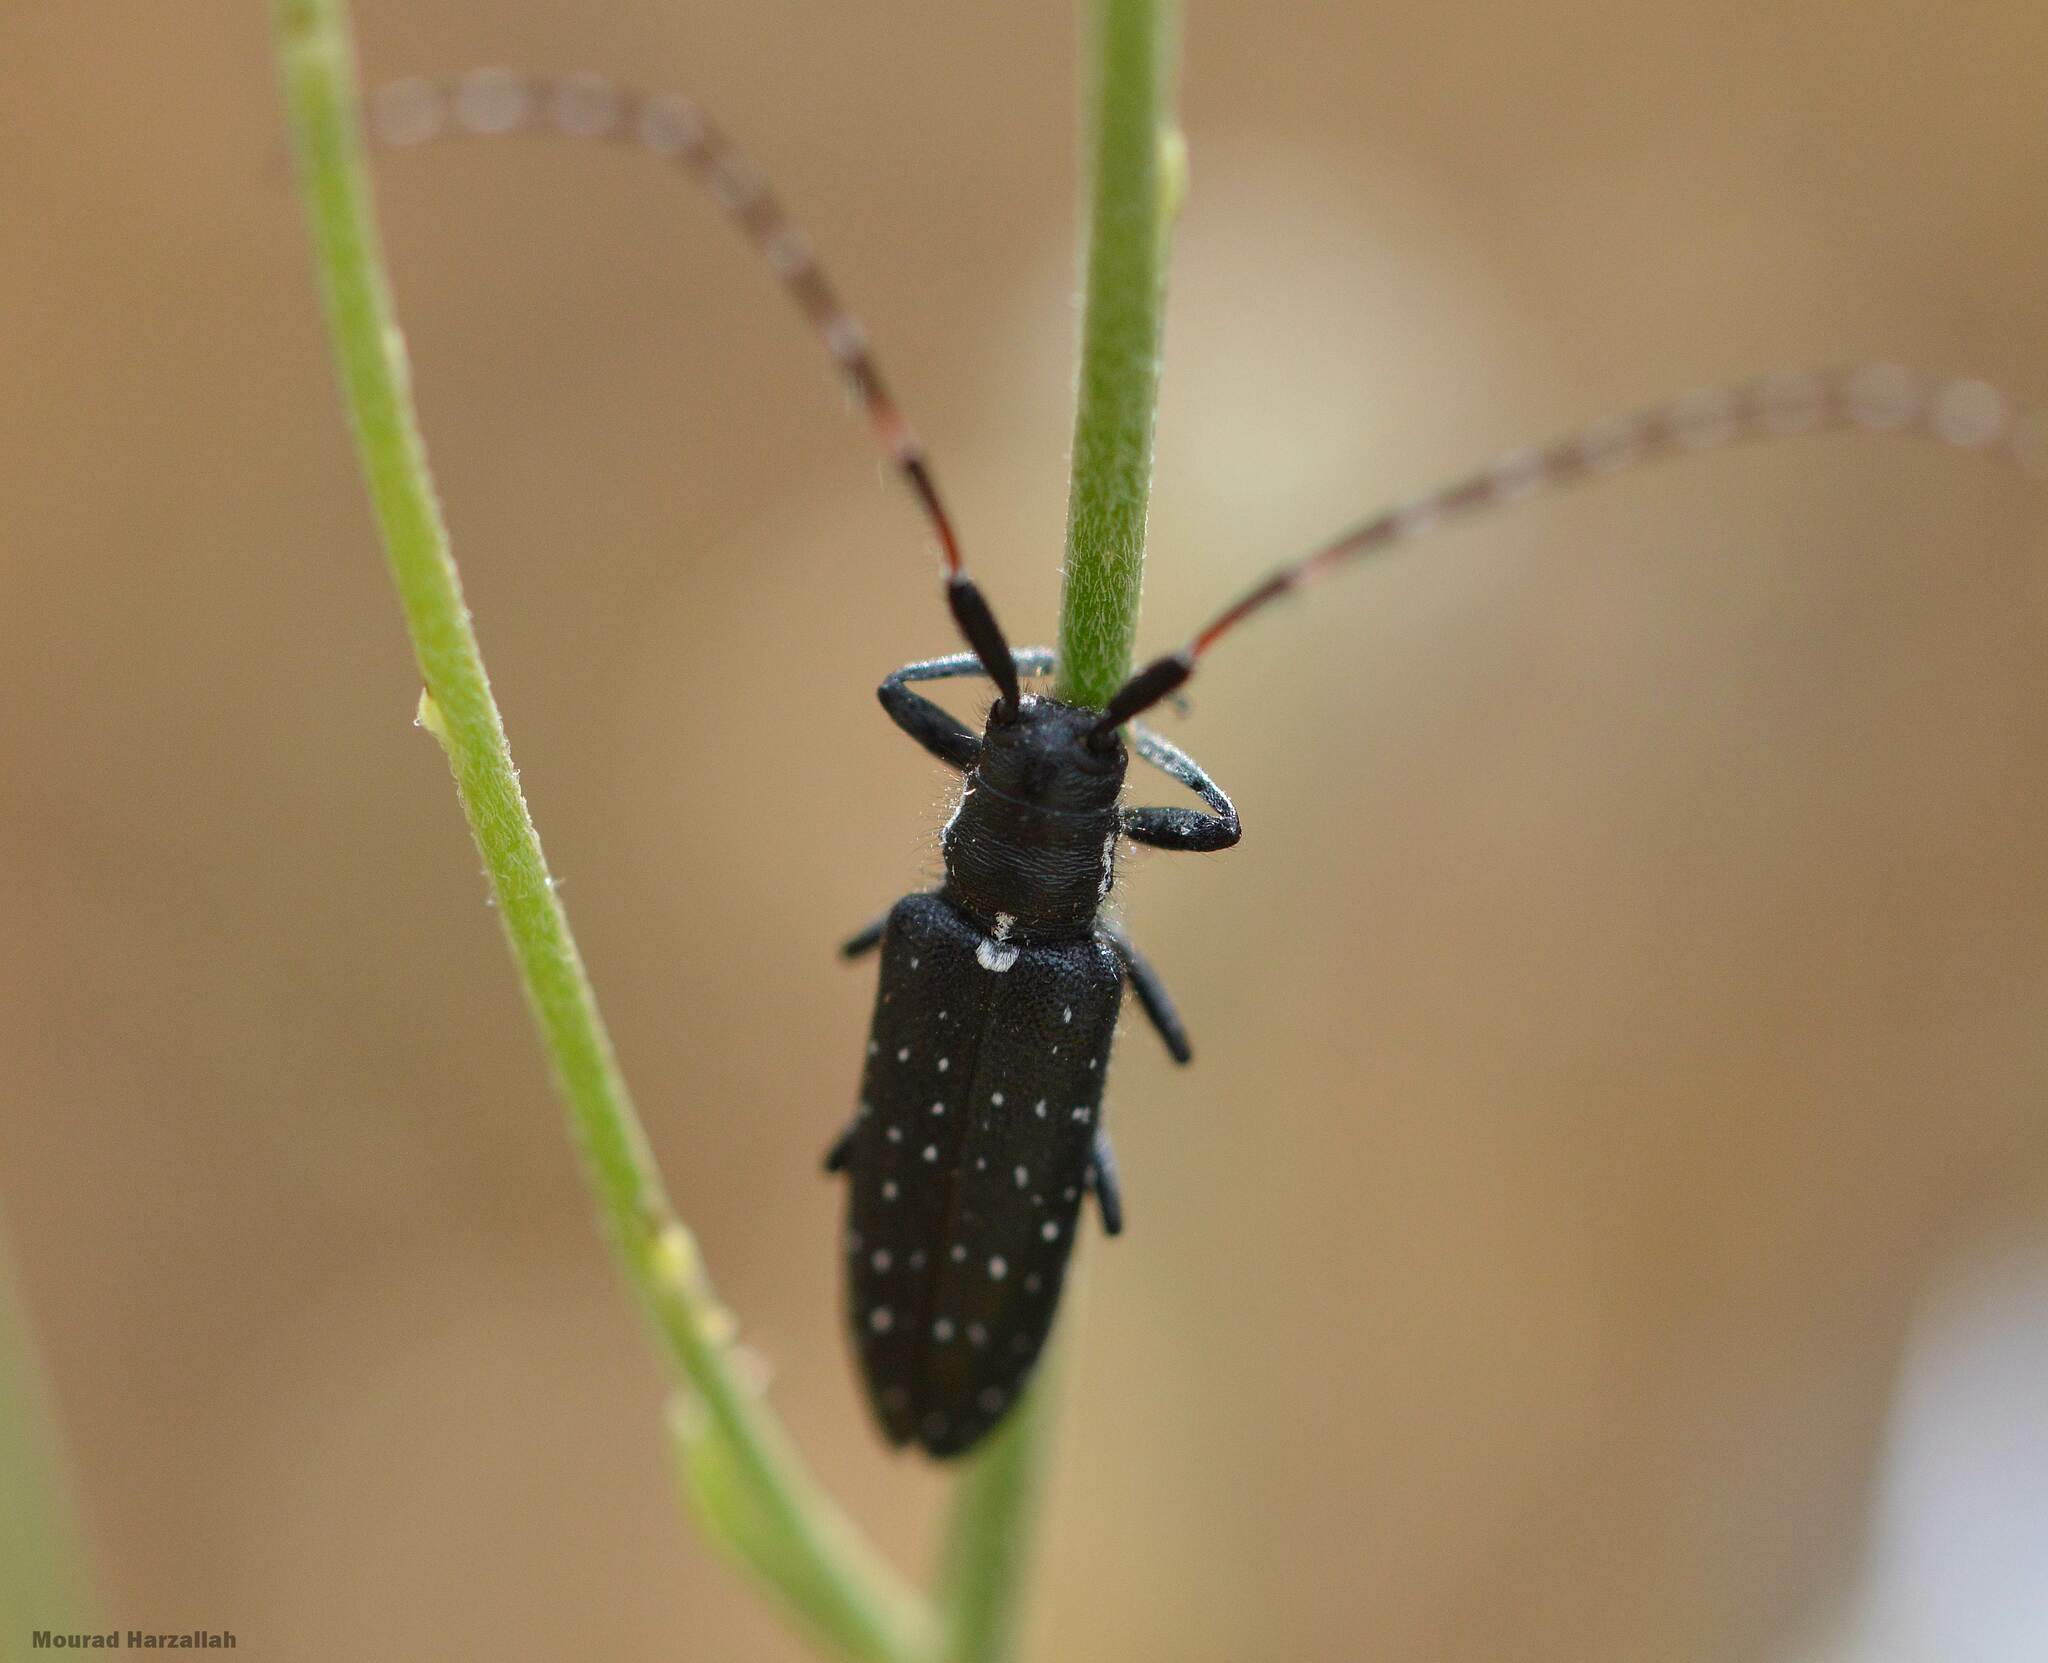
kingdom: Animalia
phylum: Arthropoda
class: Insecta
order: Coleoptera
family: Cerambycidae
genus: Agapanthia
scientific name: Agapanthia irrorata
